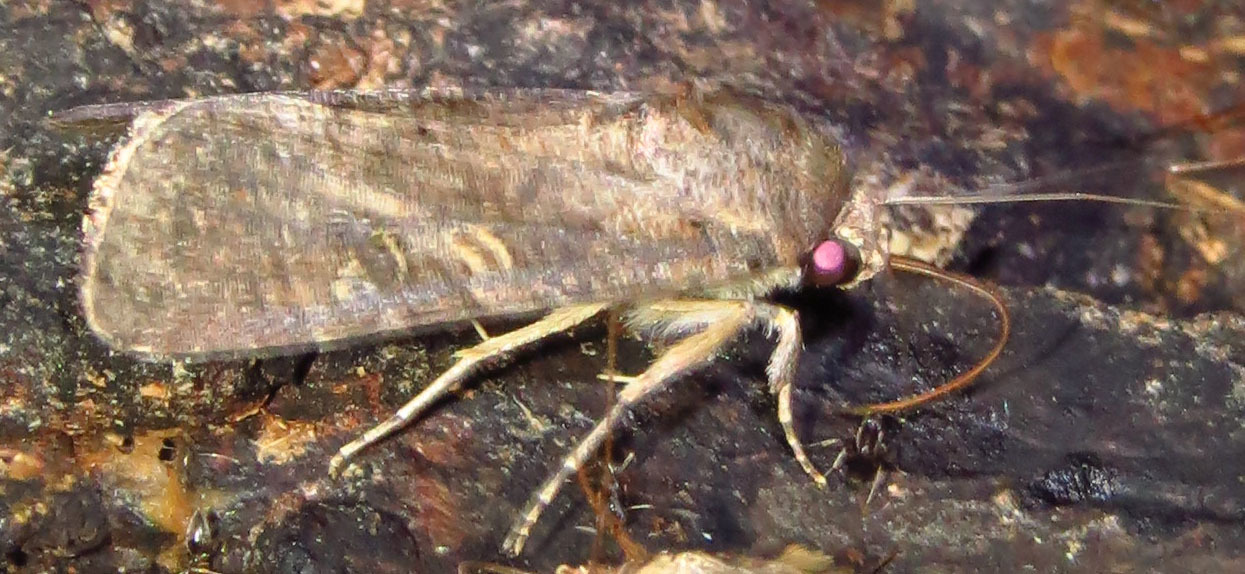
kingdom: Animalia
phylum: Arthropoda
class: Insecta
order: Lepidoptera
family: Noctuidae
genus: Spodoptera
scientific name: Spodoptera frugiperda
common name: Fall armyworm
